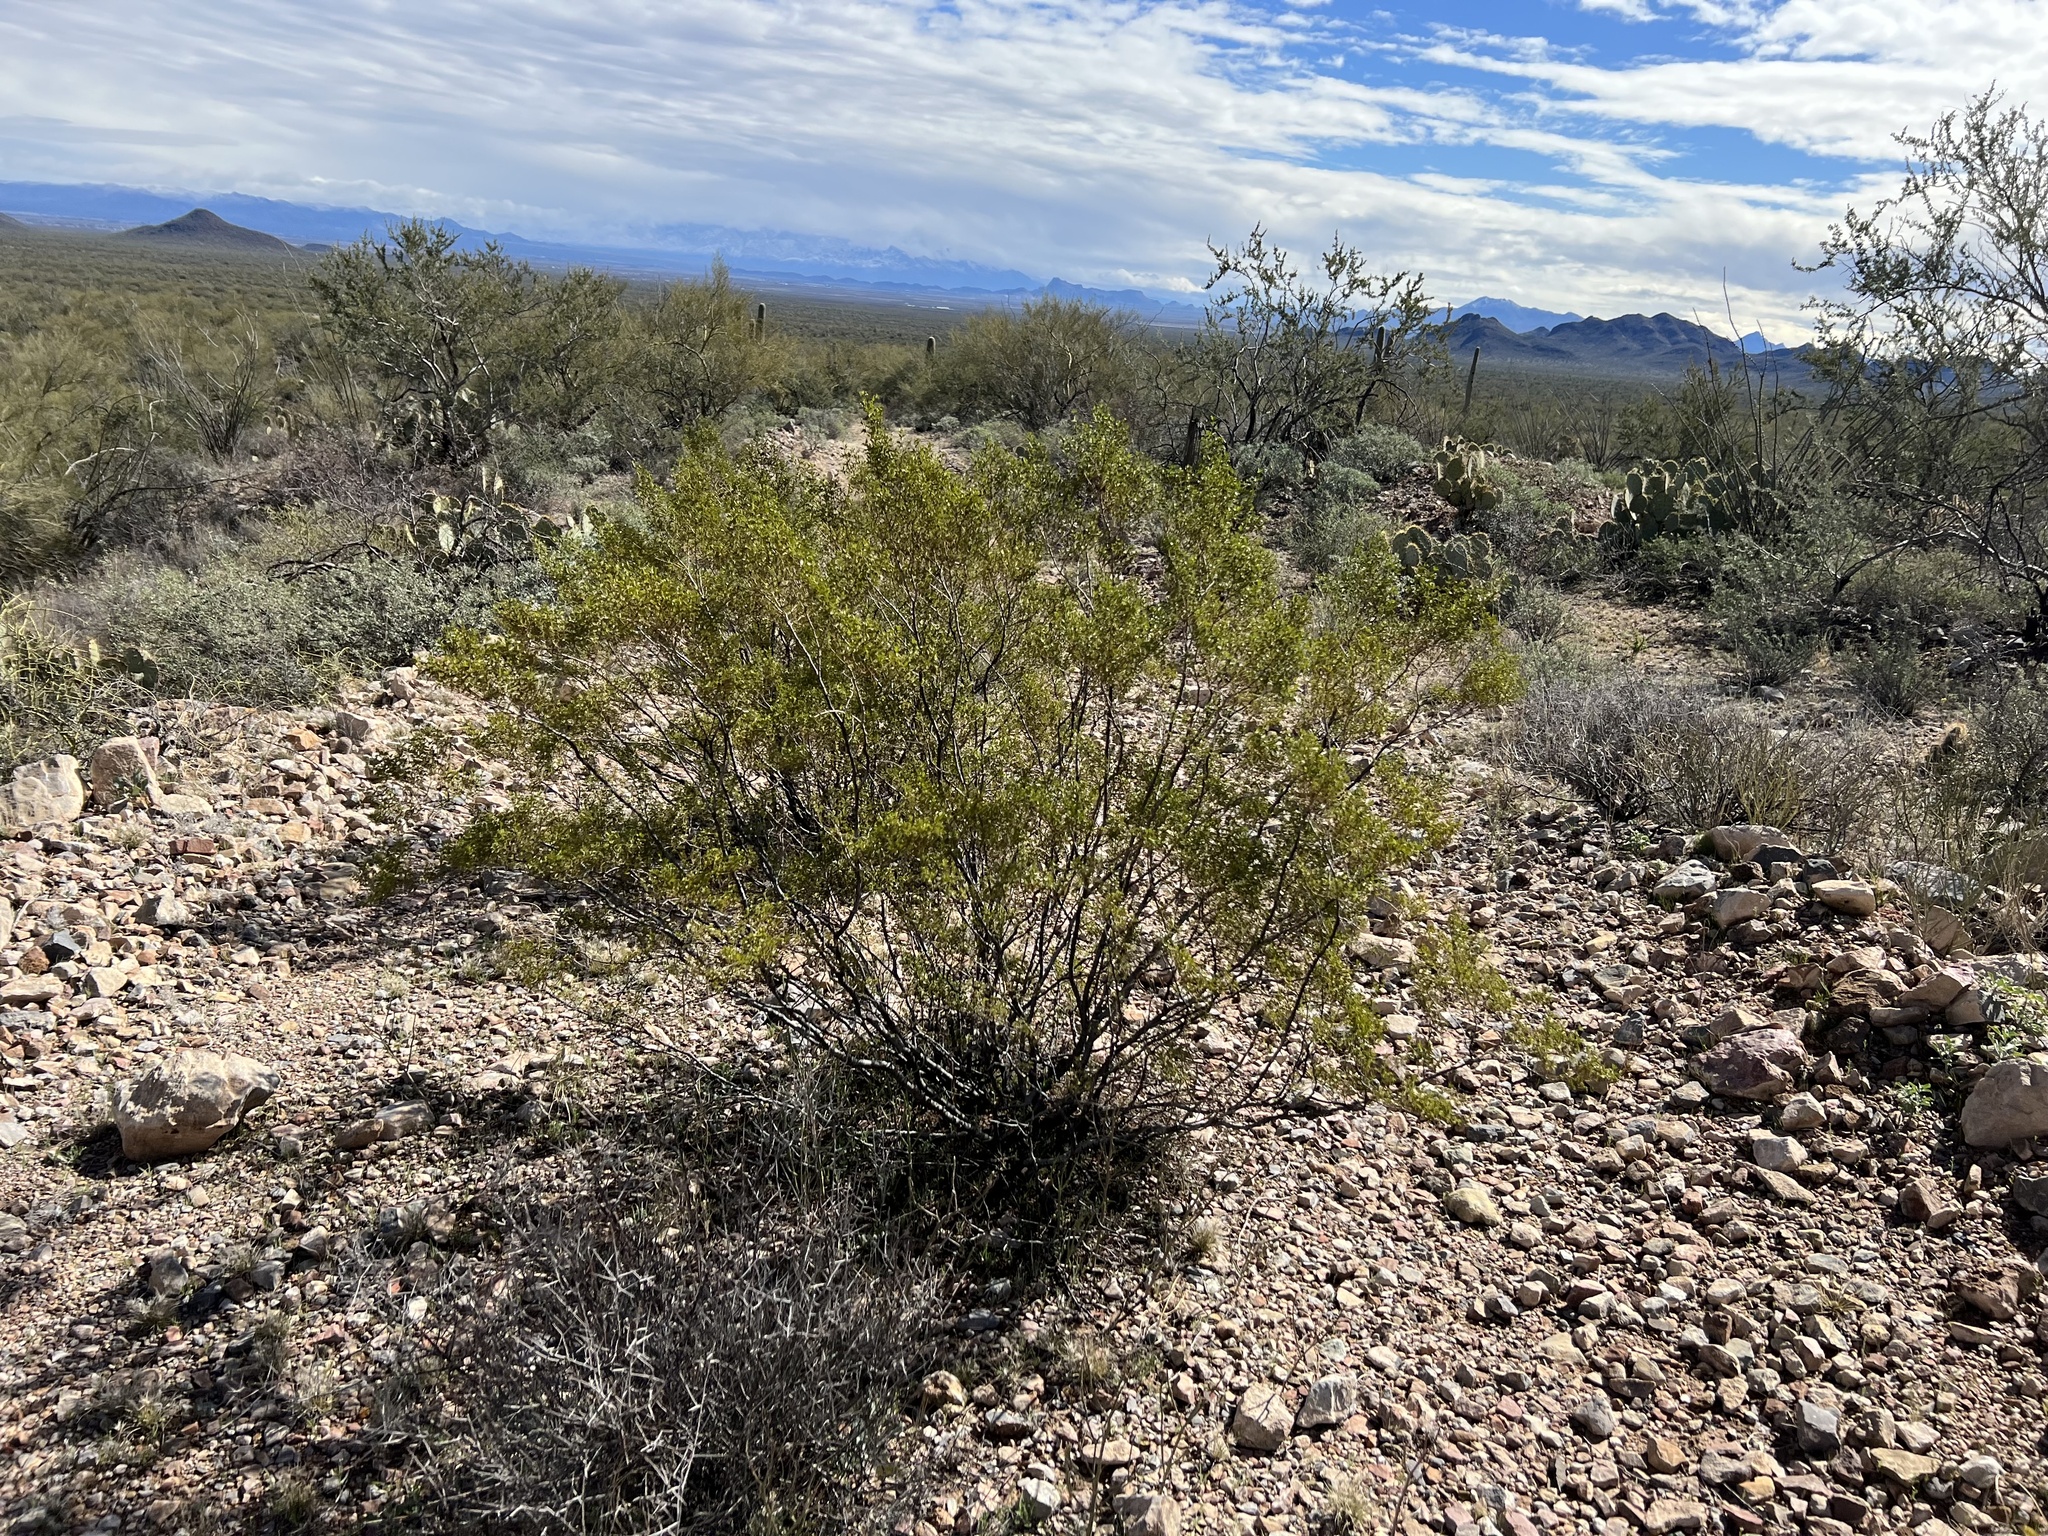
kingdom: Plantae
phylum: Tracheophyta
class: Magnoliopsida
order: Zygophyllales
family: Zygophyllaceae
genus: Larrea
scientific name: Larrea tridentata
